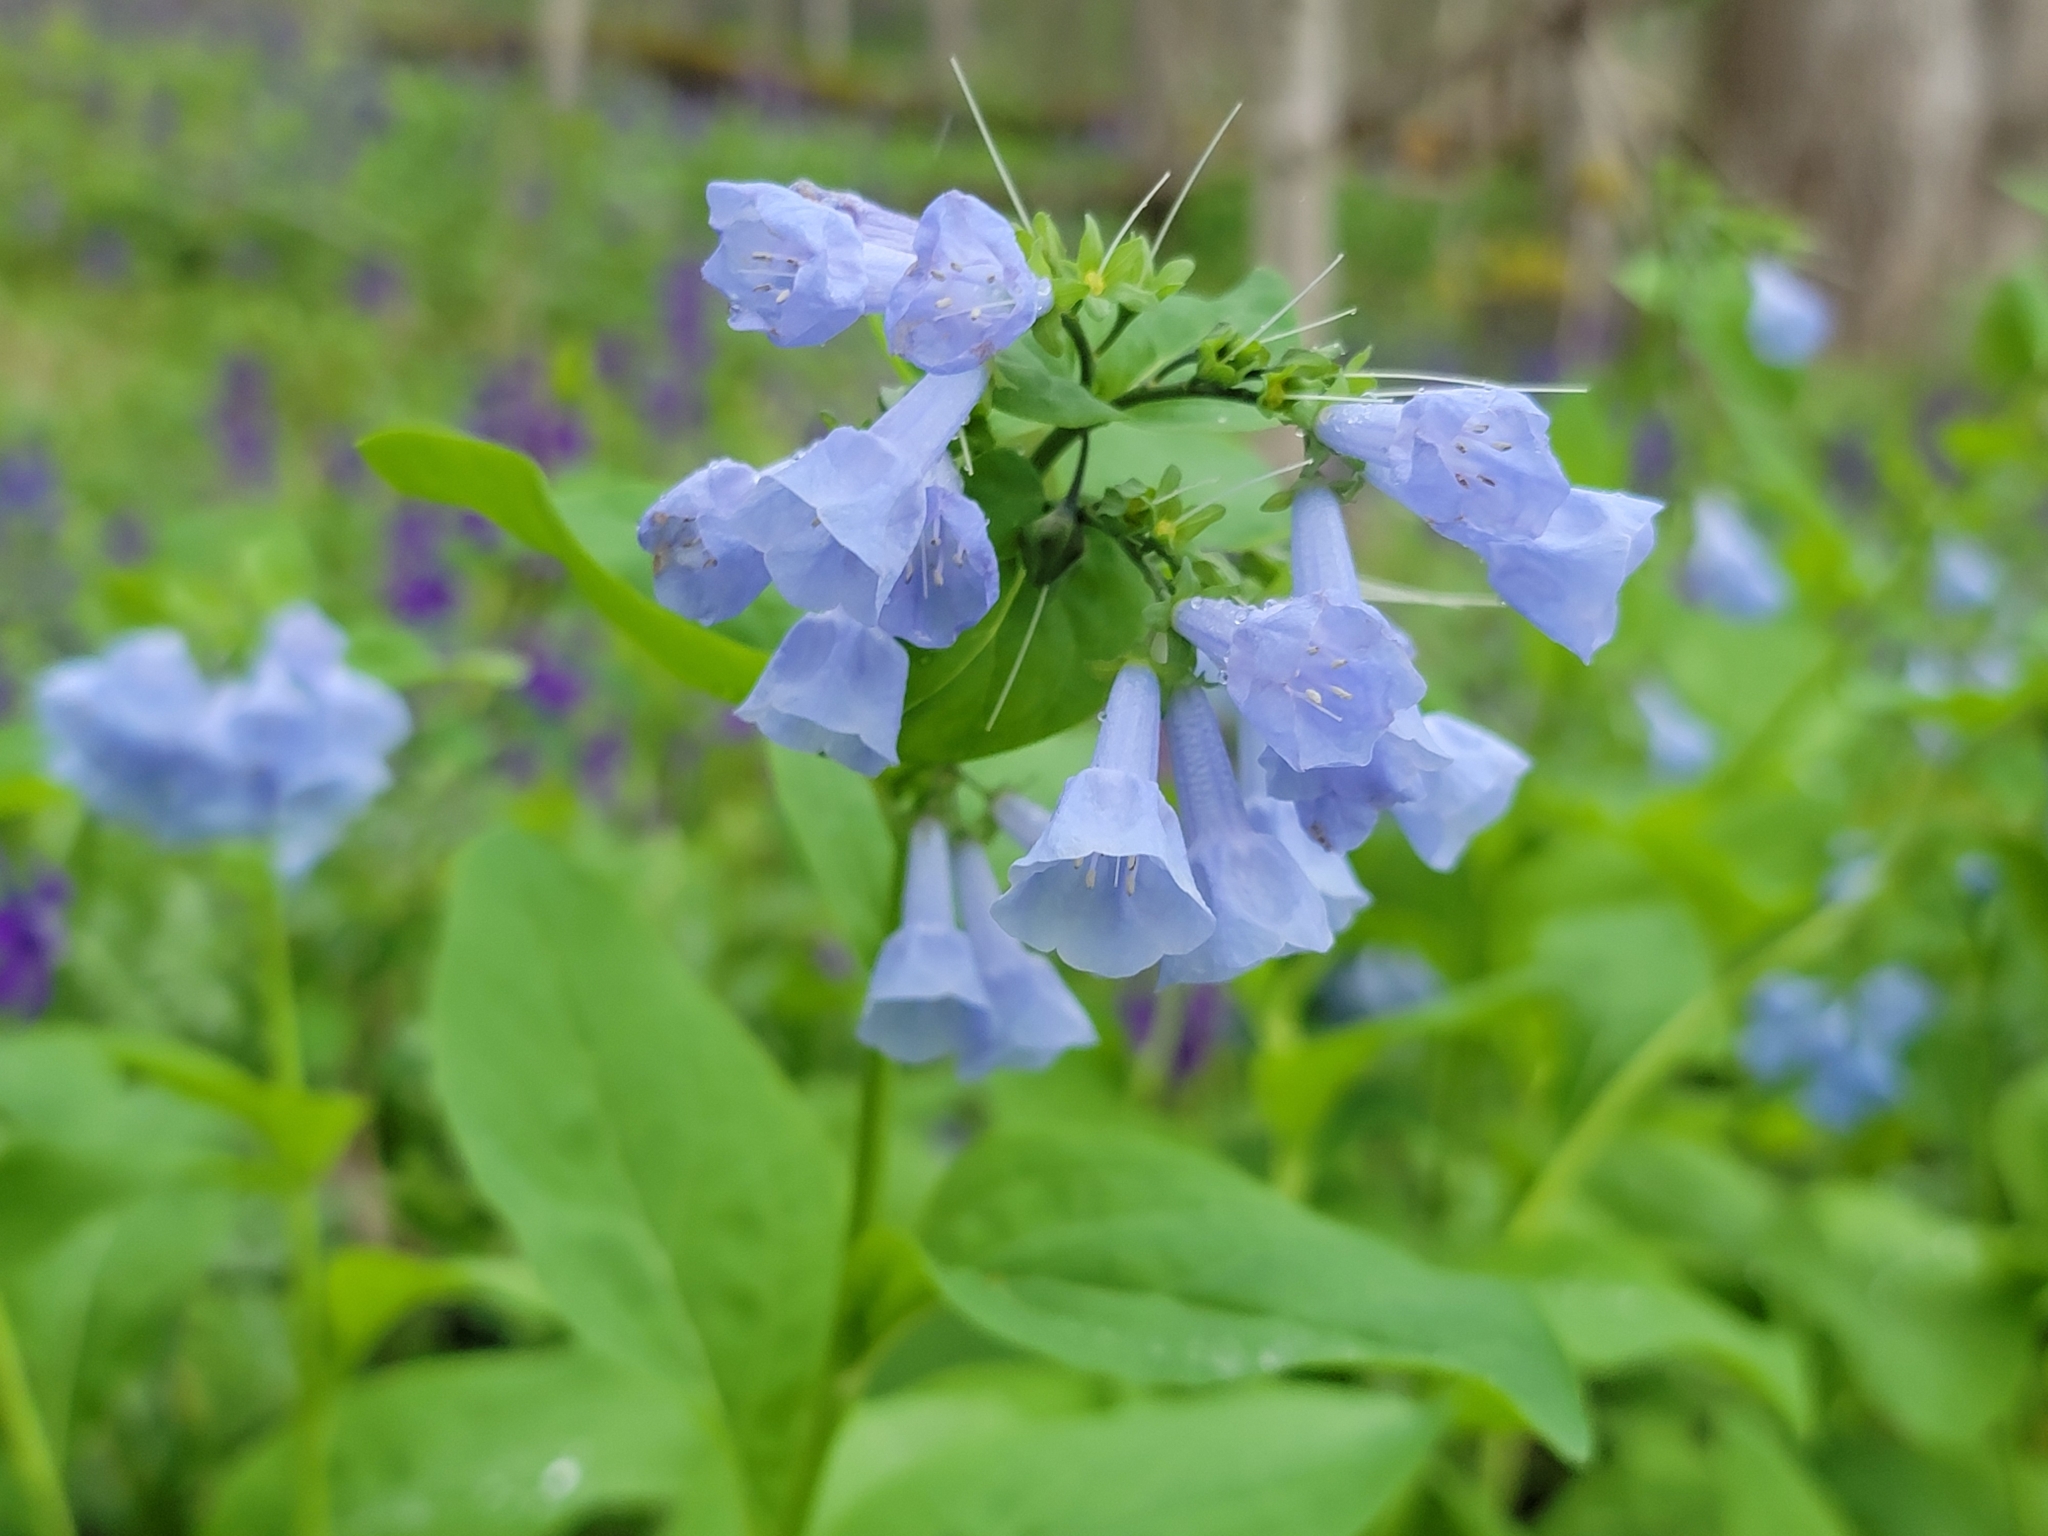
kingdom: Plantae
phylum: Tracheophyta
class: Magnoliopsida
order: Boraginales
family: Boraginaceae
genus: Mertensia
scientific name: Mertensia virginica
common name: Virginia bluebells
